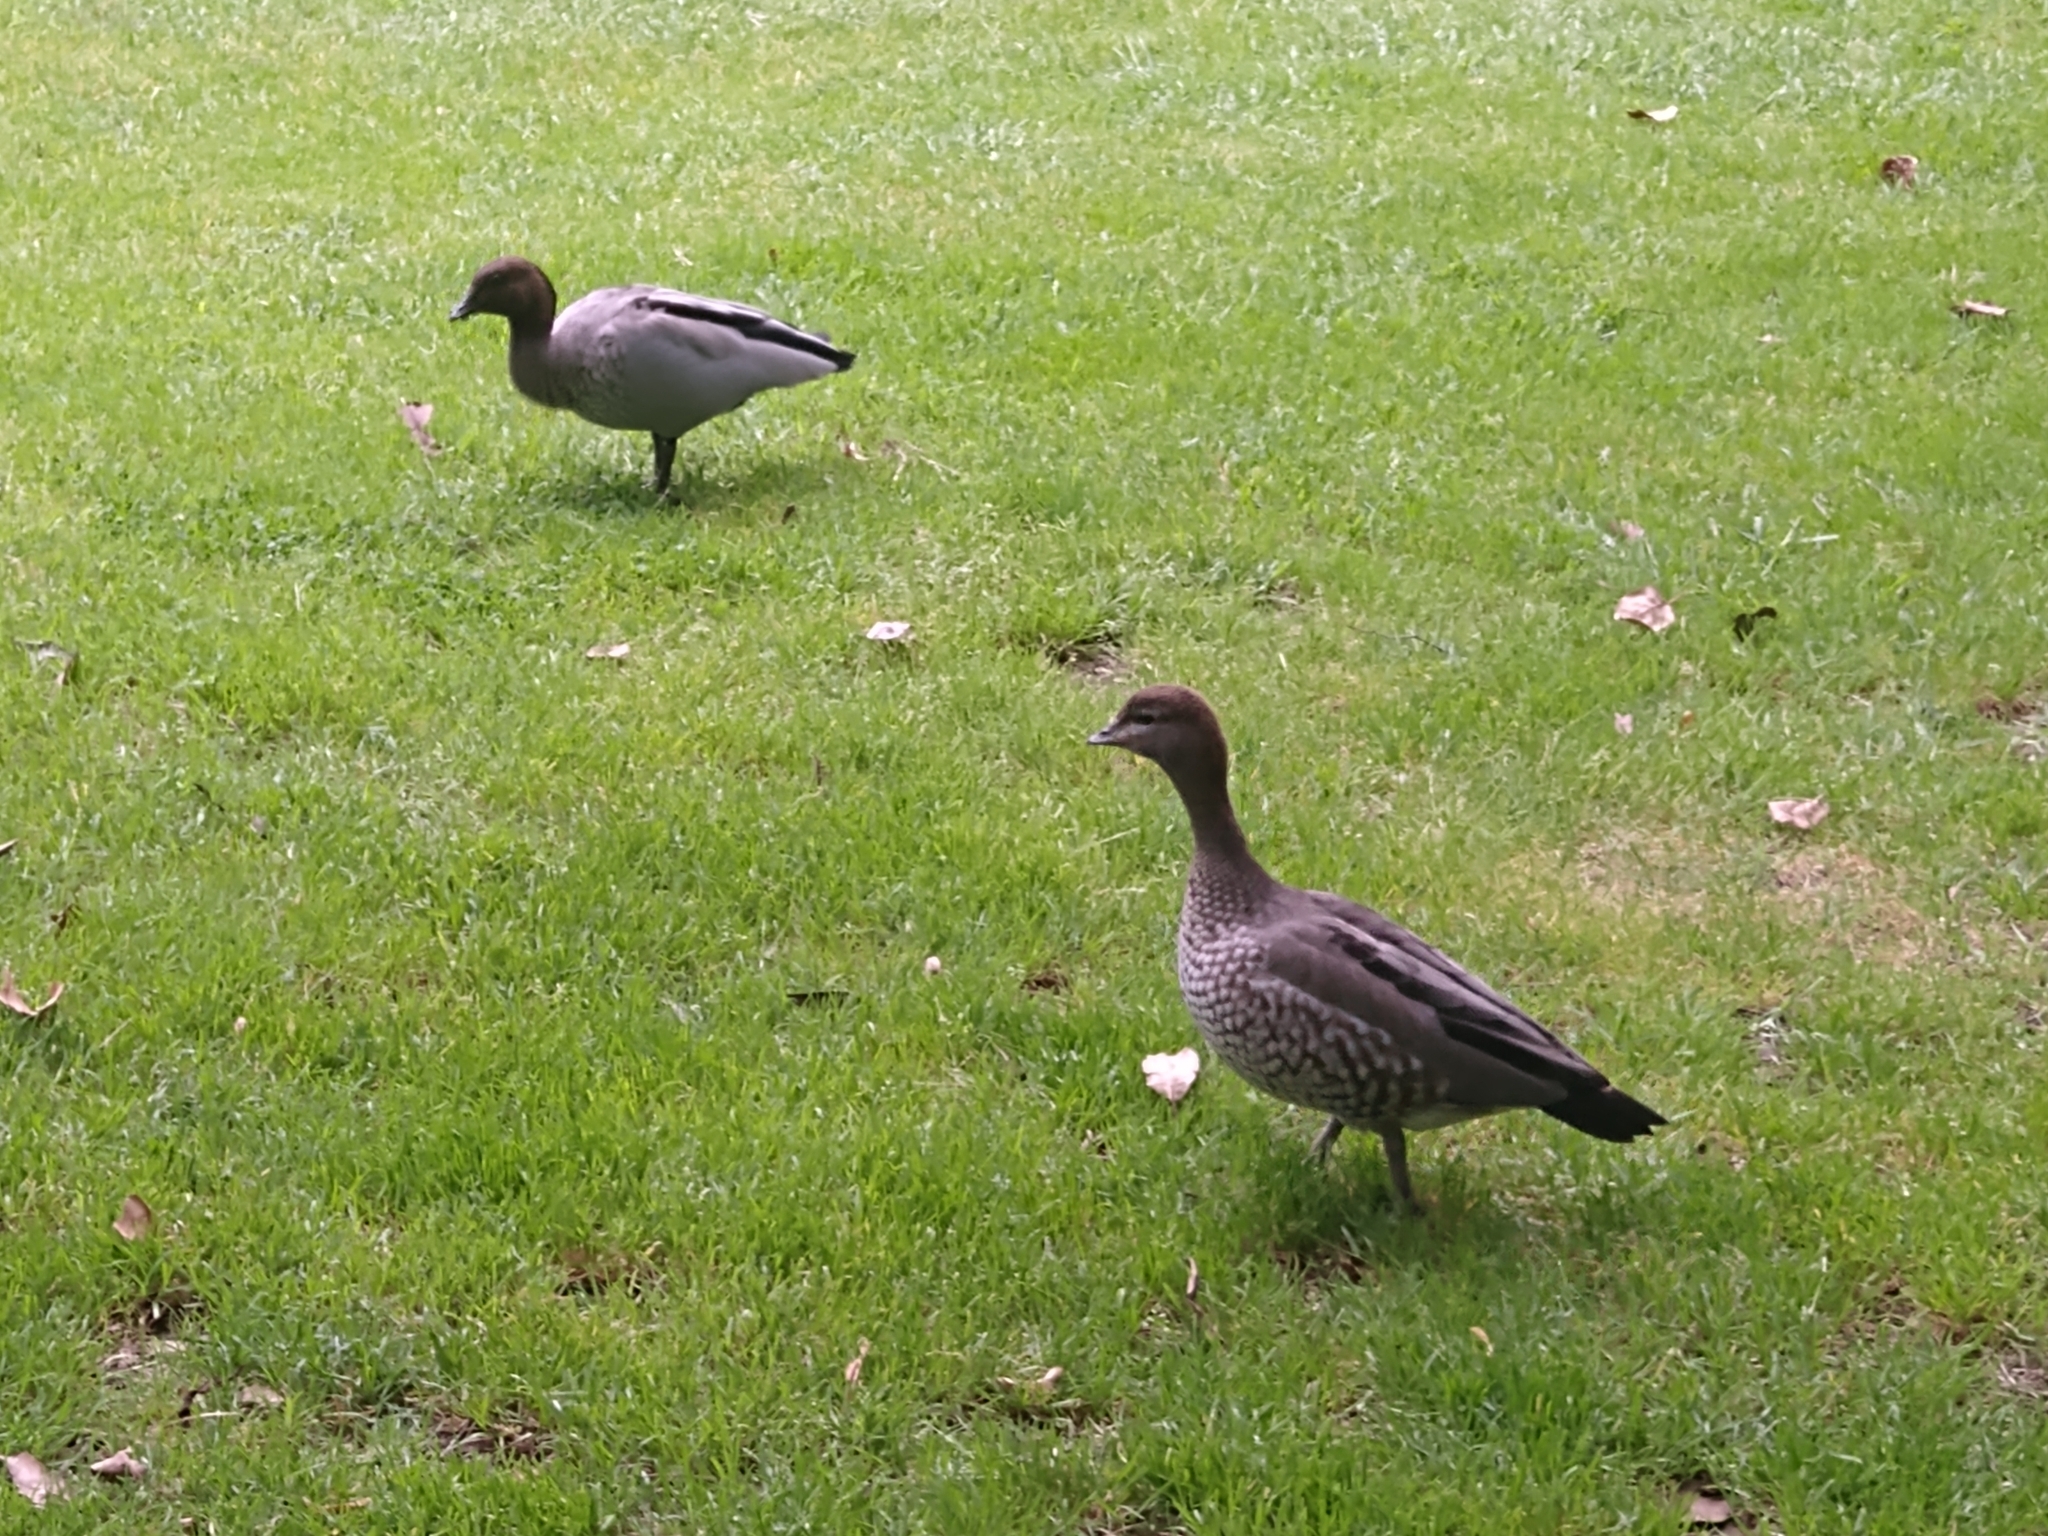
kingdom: Animalia
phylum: Chordata
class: Aves
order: Anseriformes
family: Anatidae
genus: Chenonetta
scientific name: Chenonetta jubata
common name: Maned duck
